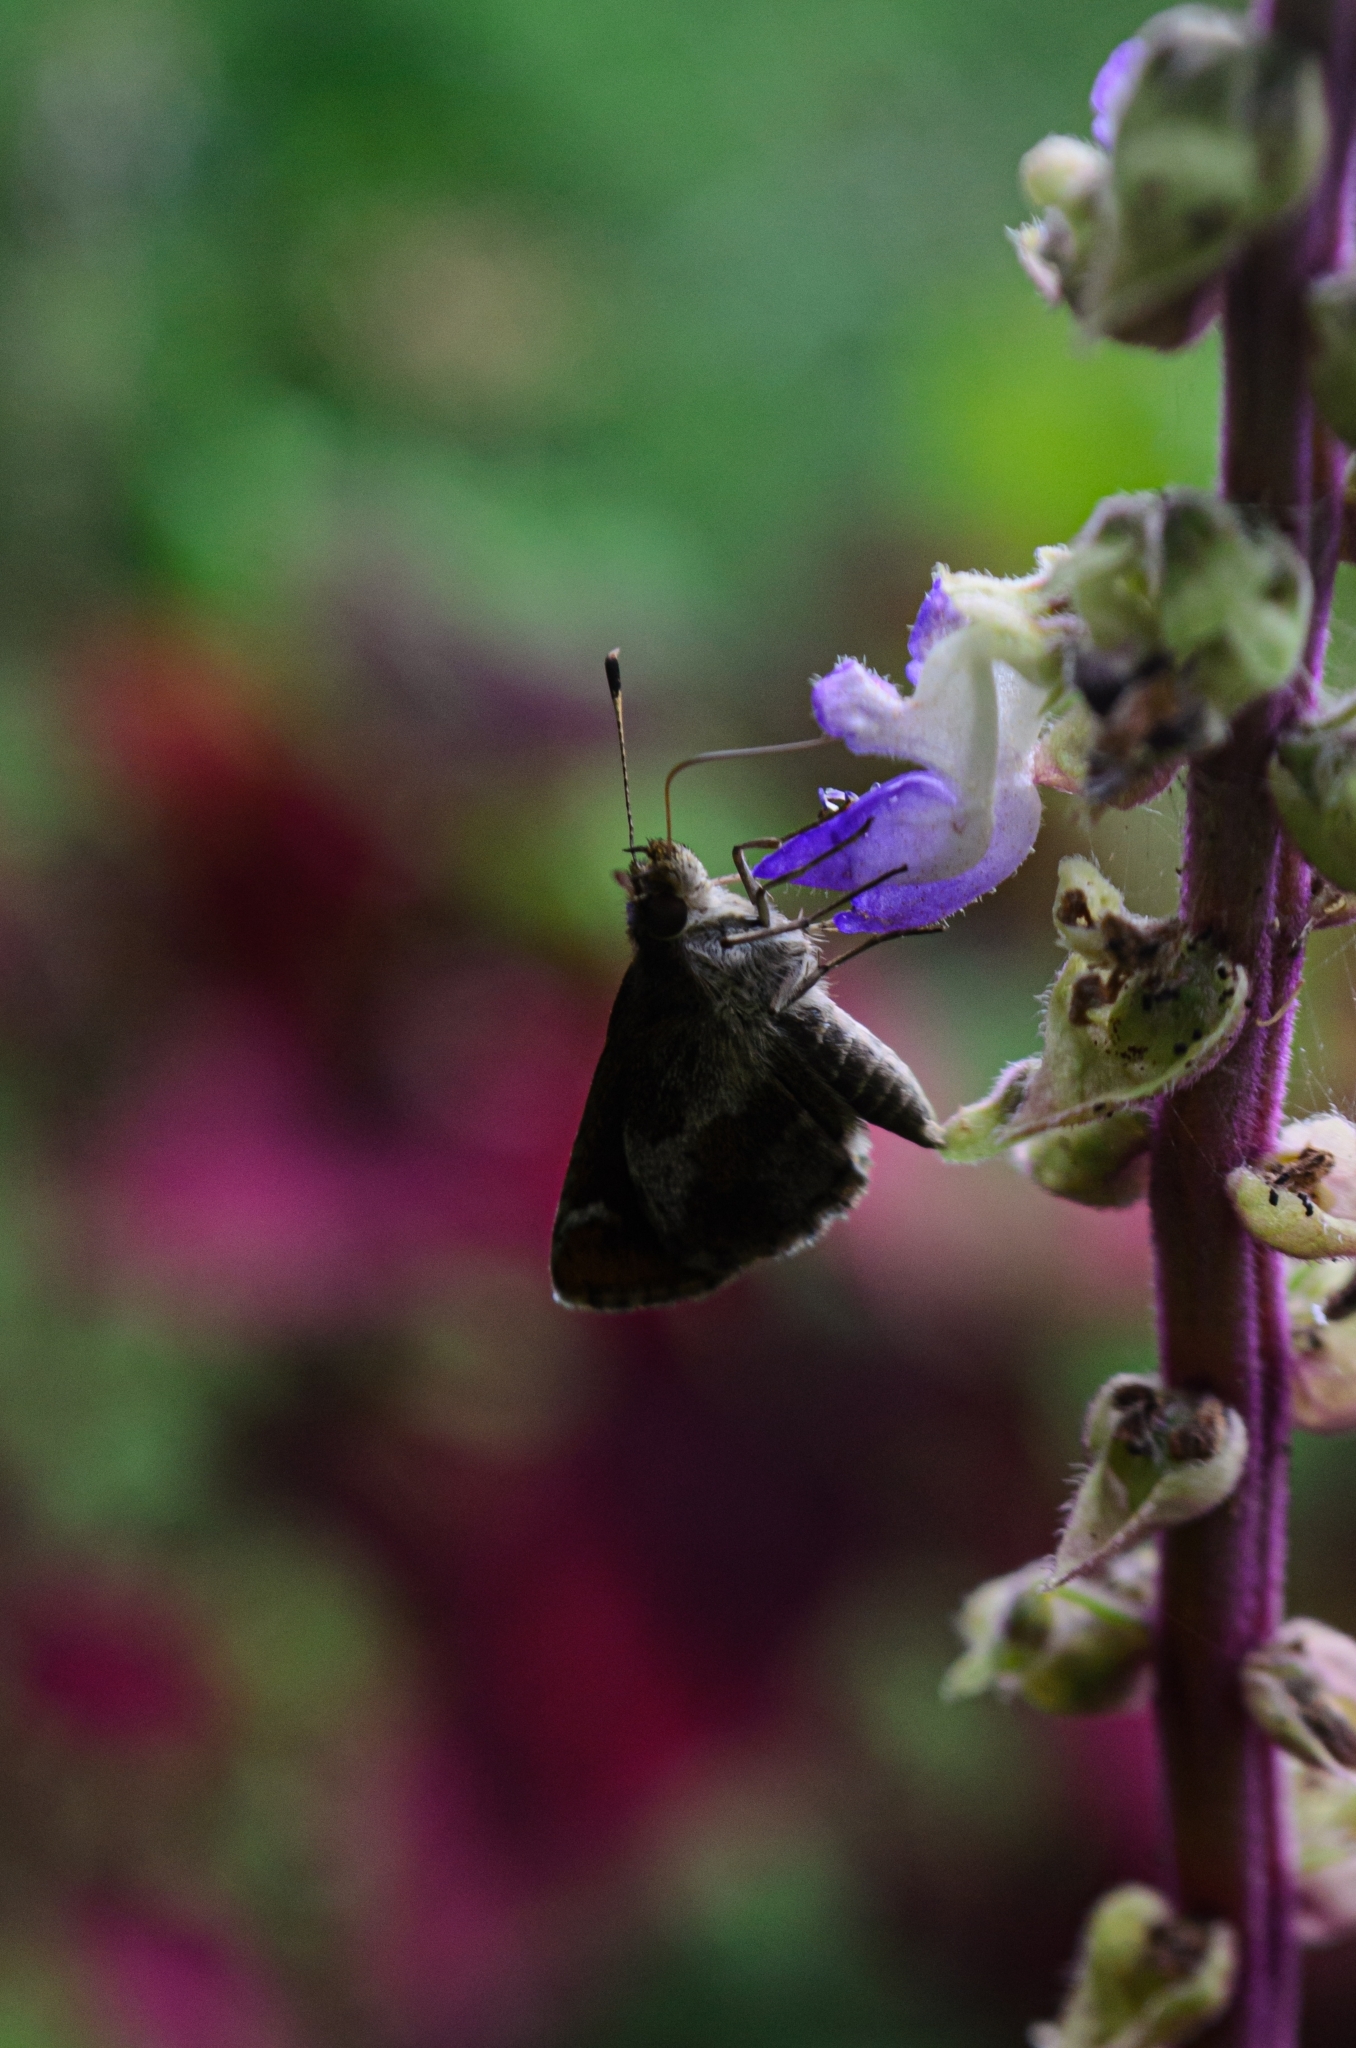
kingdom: Animalia
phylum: Arthropoda
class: Insecta
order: Lepidoptera
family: Hesperiidae
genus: Callimormus
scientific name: Callimormus
